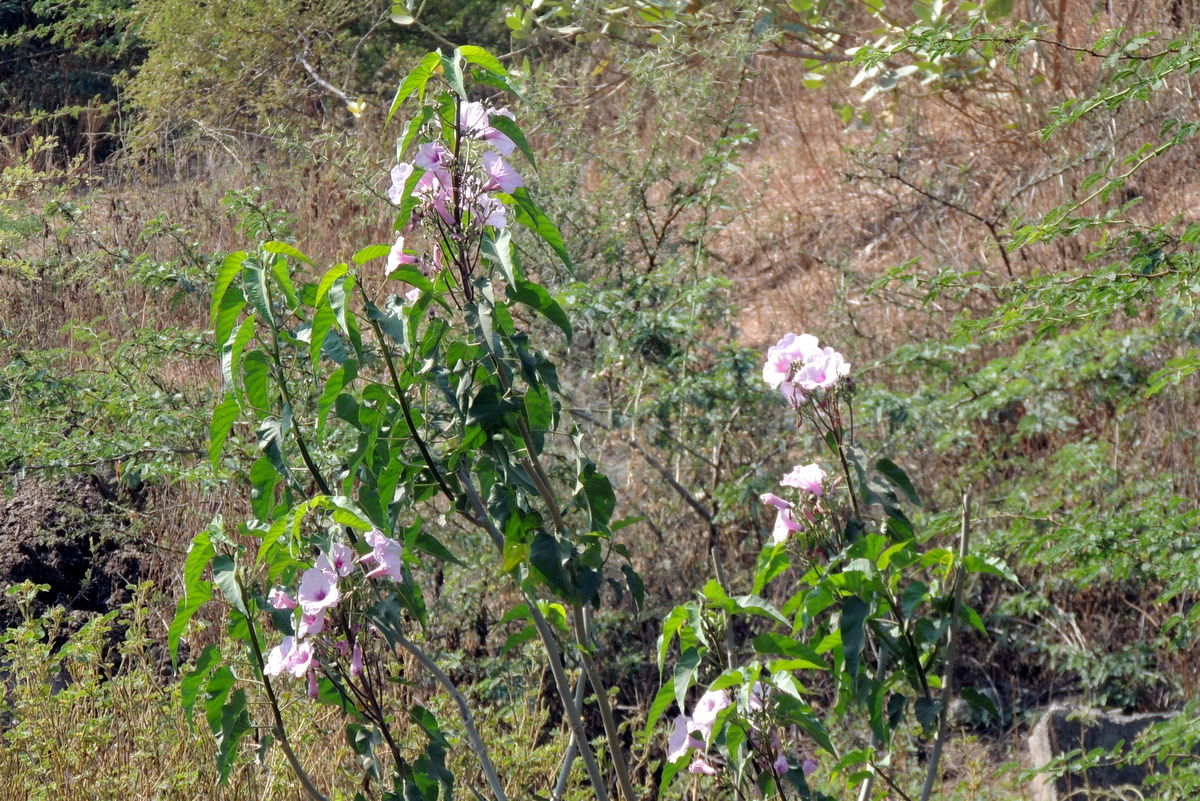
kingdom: Plantae
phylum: Tracheophyta
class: Magnoliopsida
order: Solanales
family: Convolvulaceae
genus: Ipomoea
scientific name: Ipomoea carnea
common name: Morning-glory
